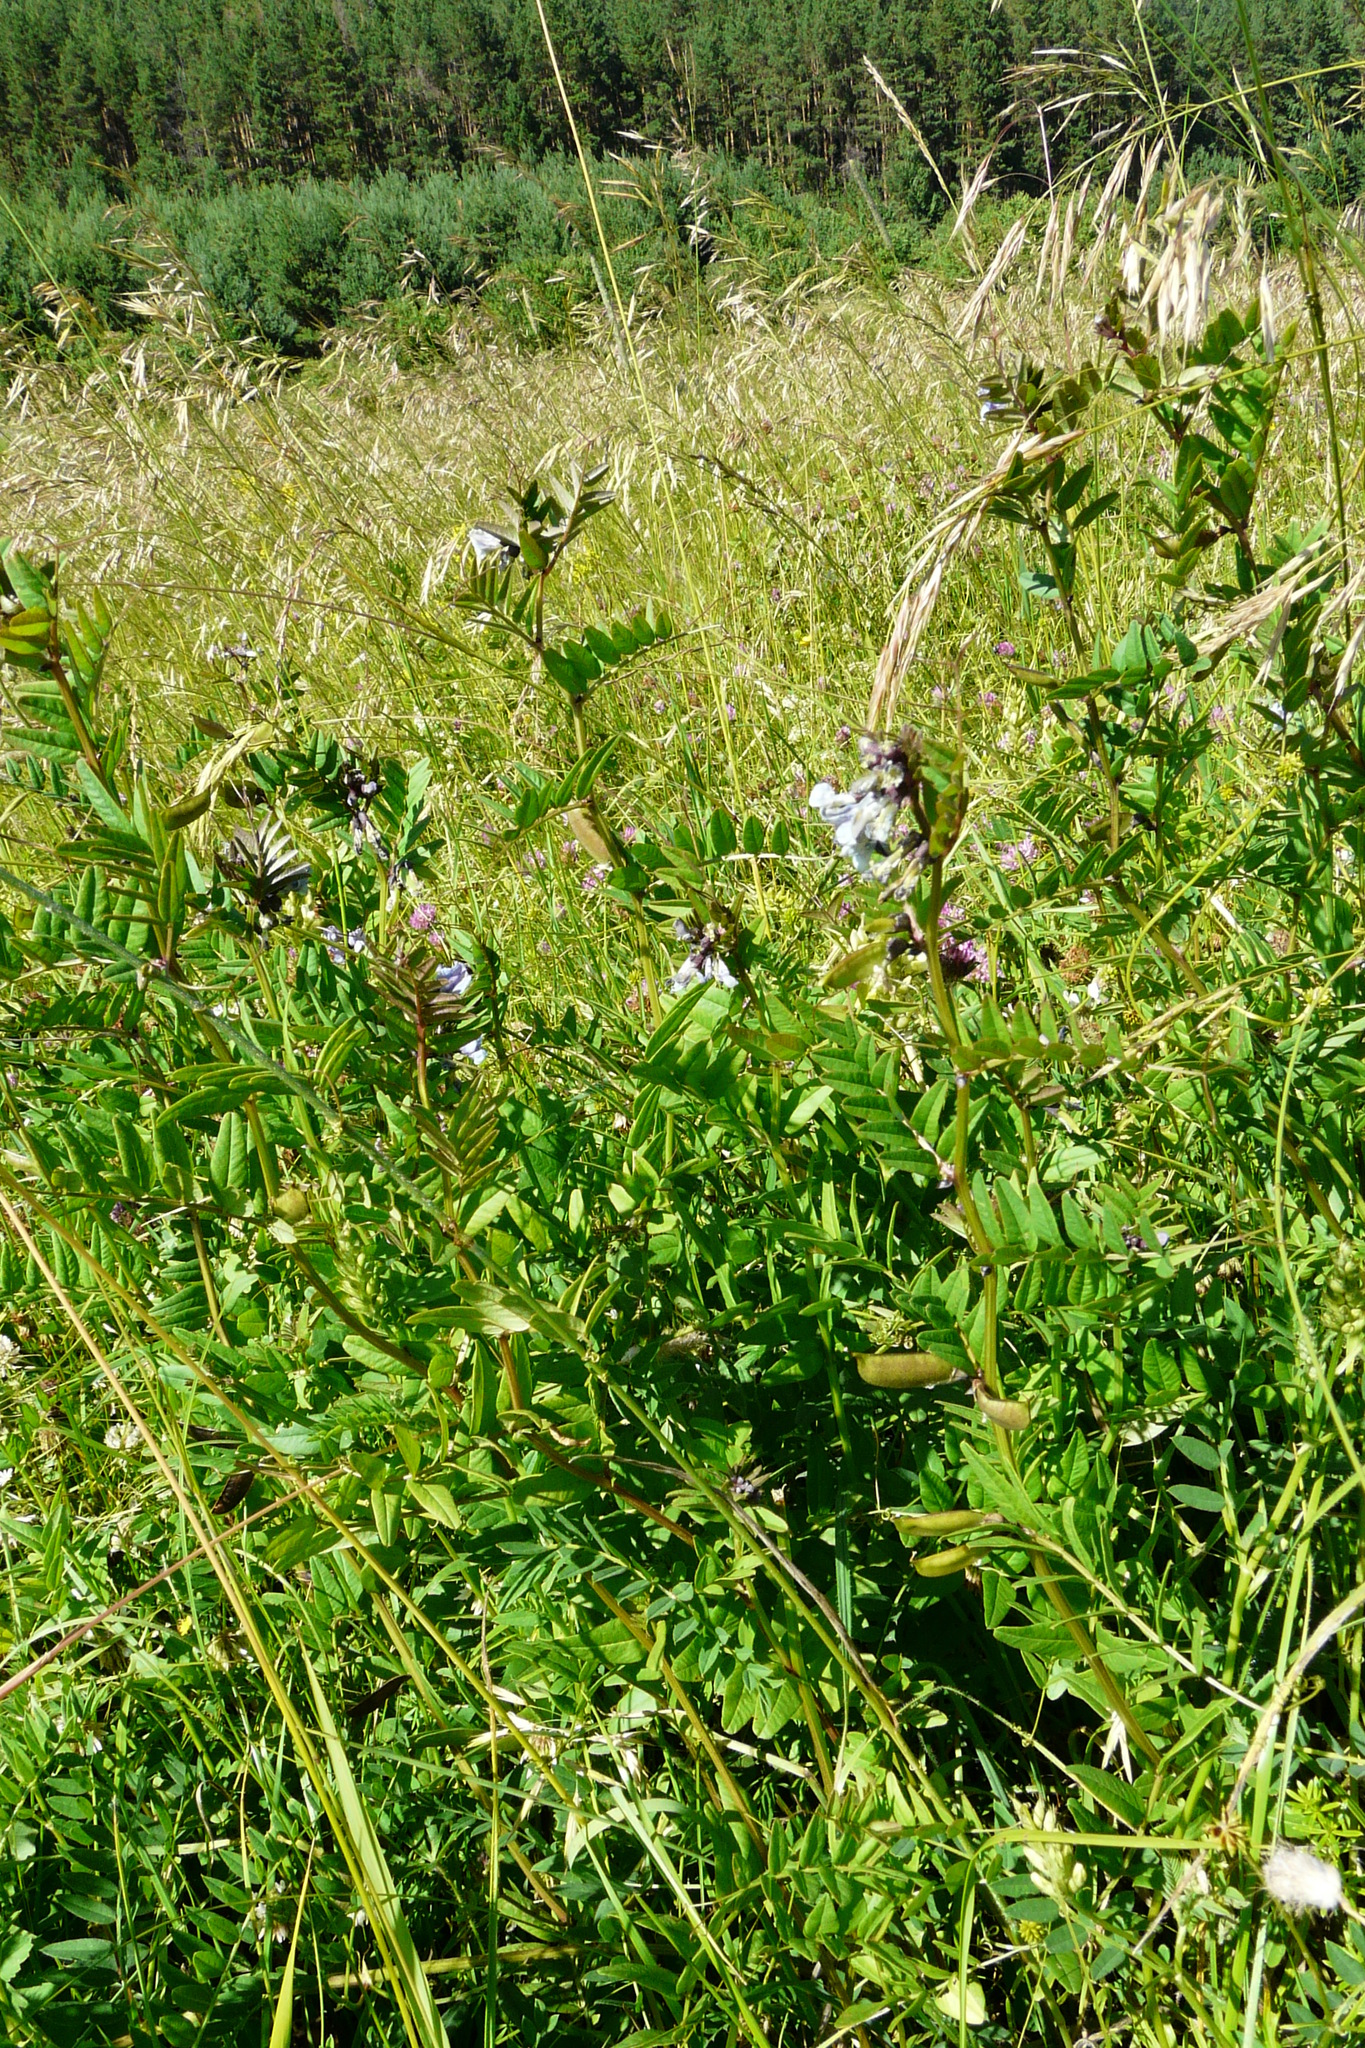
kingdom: Plantae
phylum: Tracheophyta
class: Magnoliopsida
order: Fabales
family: Fabaceae
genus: Vicia
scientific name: Vicia sepium
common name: Bush vetch
